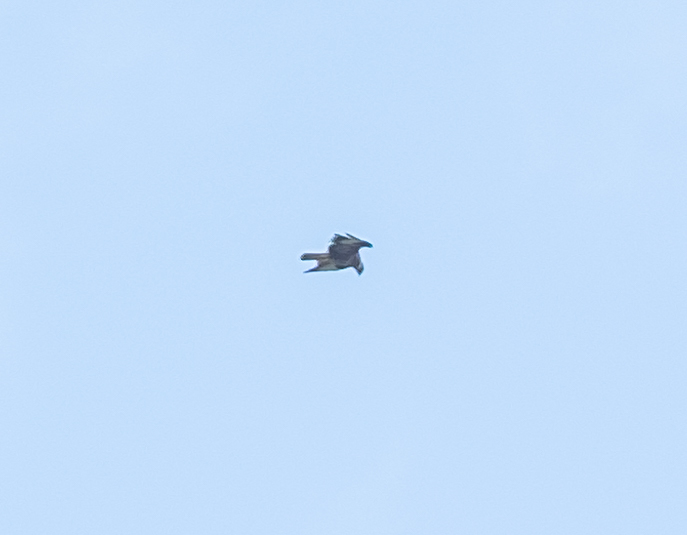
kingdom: Animalia
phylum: Chordata
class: Aves
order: Accipitriformes
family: Accipitridae
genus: Buteo
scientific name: Buteo buteo
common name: Common buzzard
